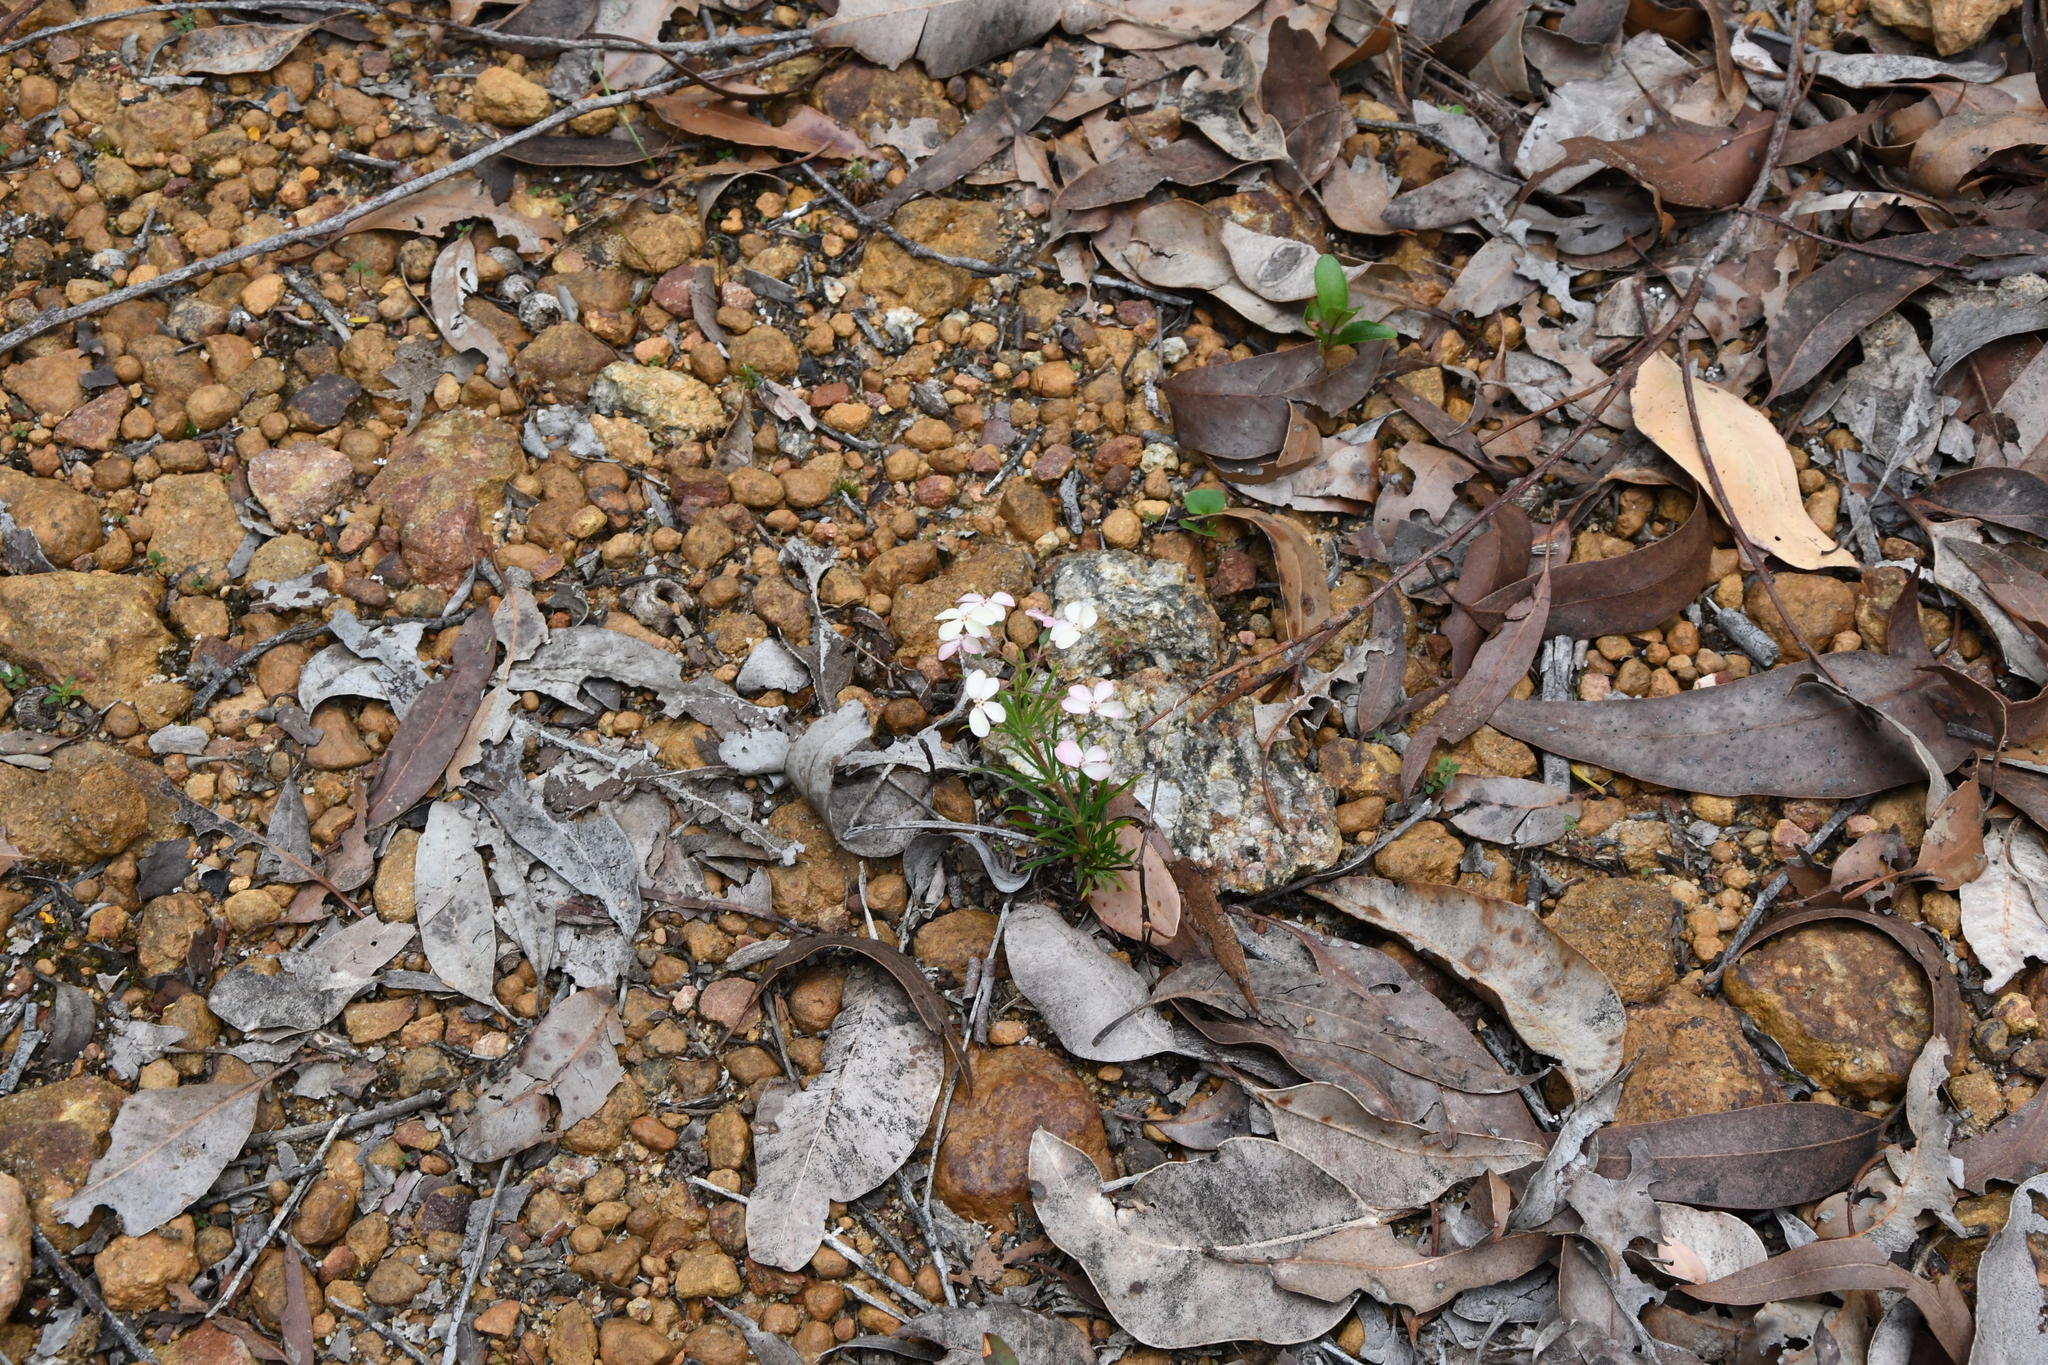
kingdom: Plantae
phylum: Tracheophyta
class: Magnoliopsida
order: Asterales
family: Stylidiaceae
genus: Stylidium
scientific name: Stylidium scandens
